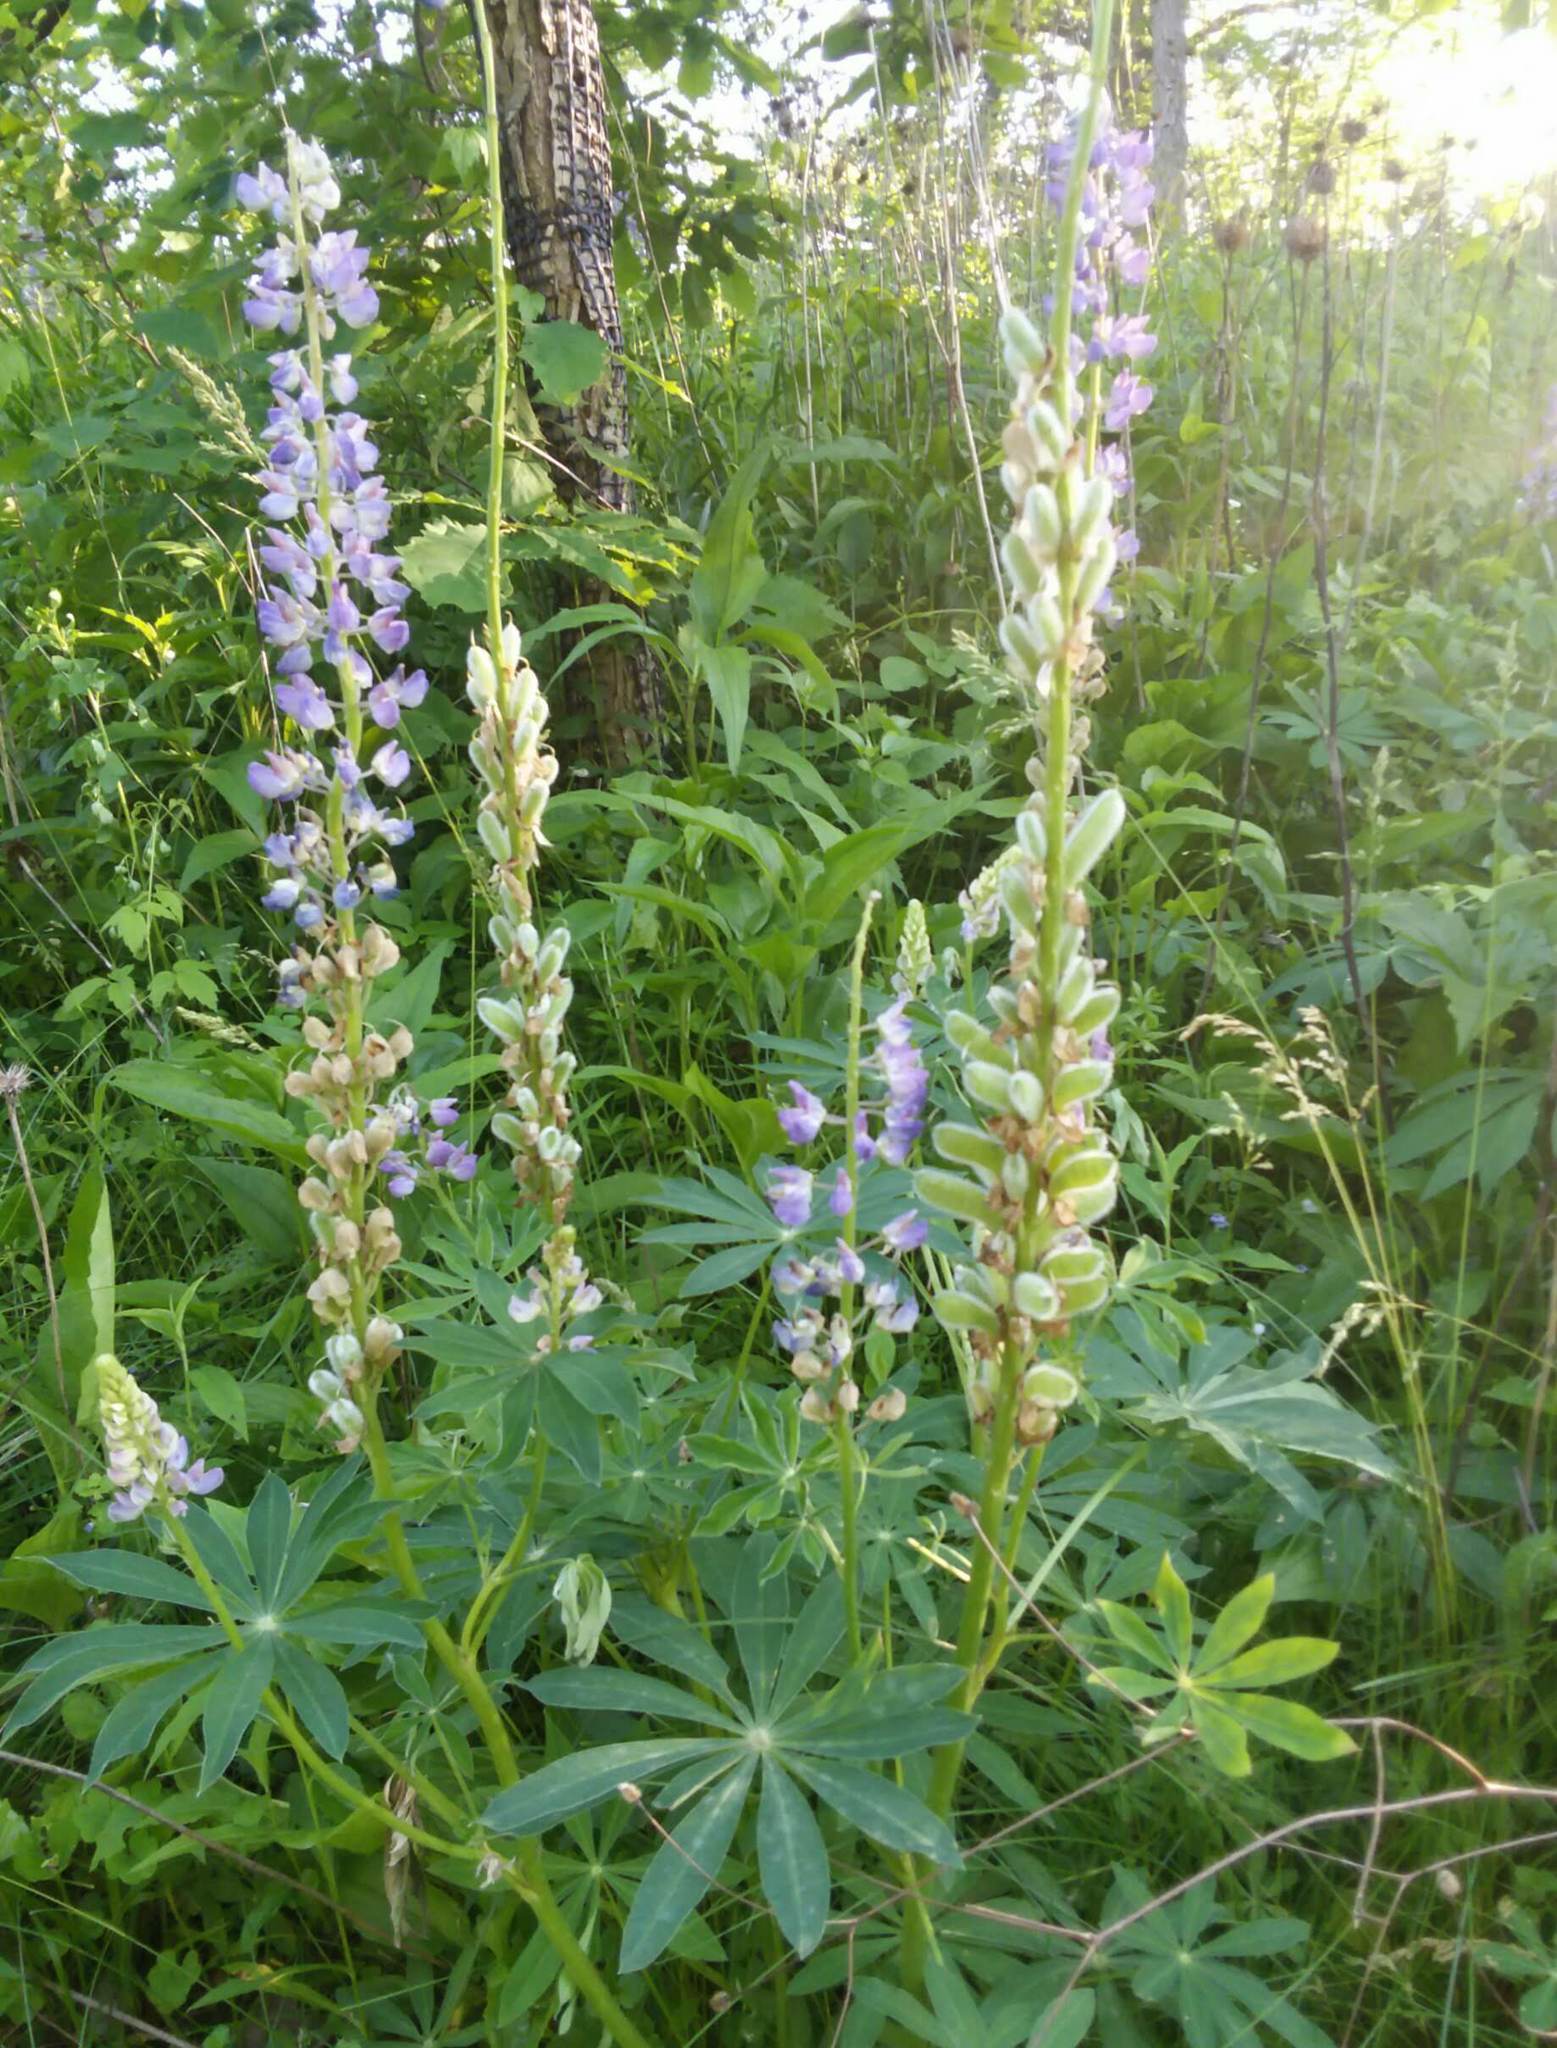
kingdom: Plantae
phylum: Tracheophyta
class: Magnoliopsida
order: Fabales
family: Fabaceae
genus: Lupinus
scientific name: Lupinus polyphyllus
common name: Garden lupin
